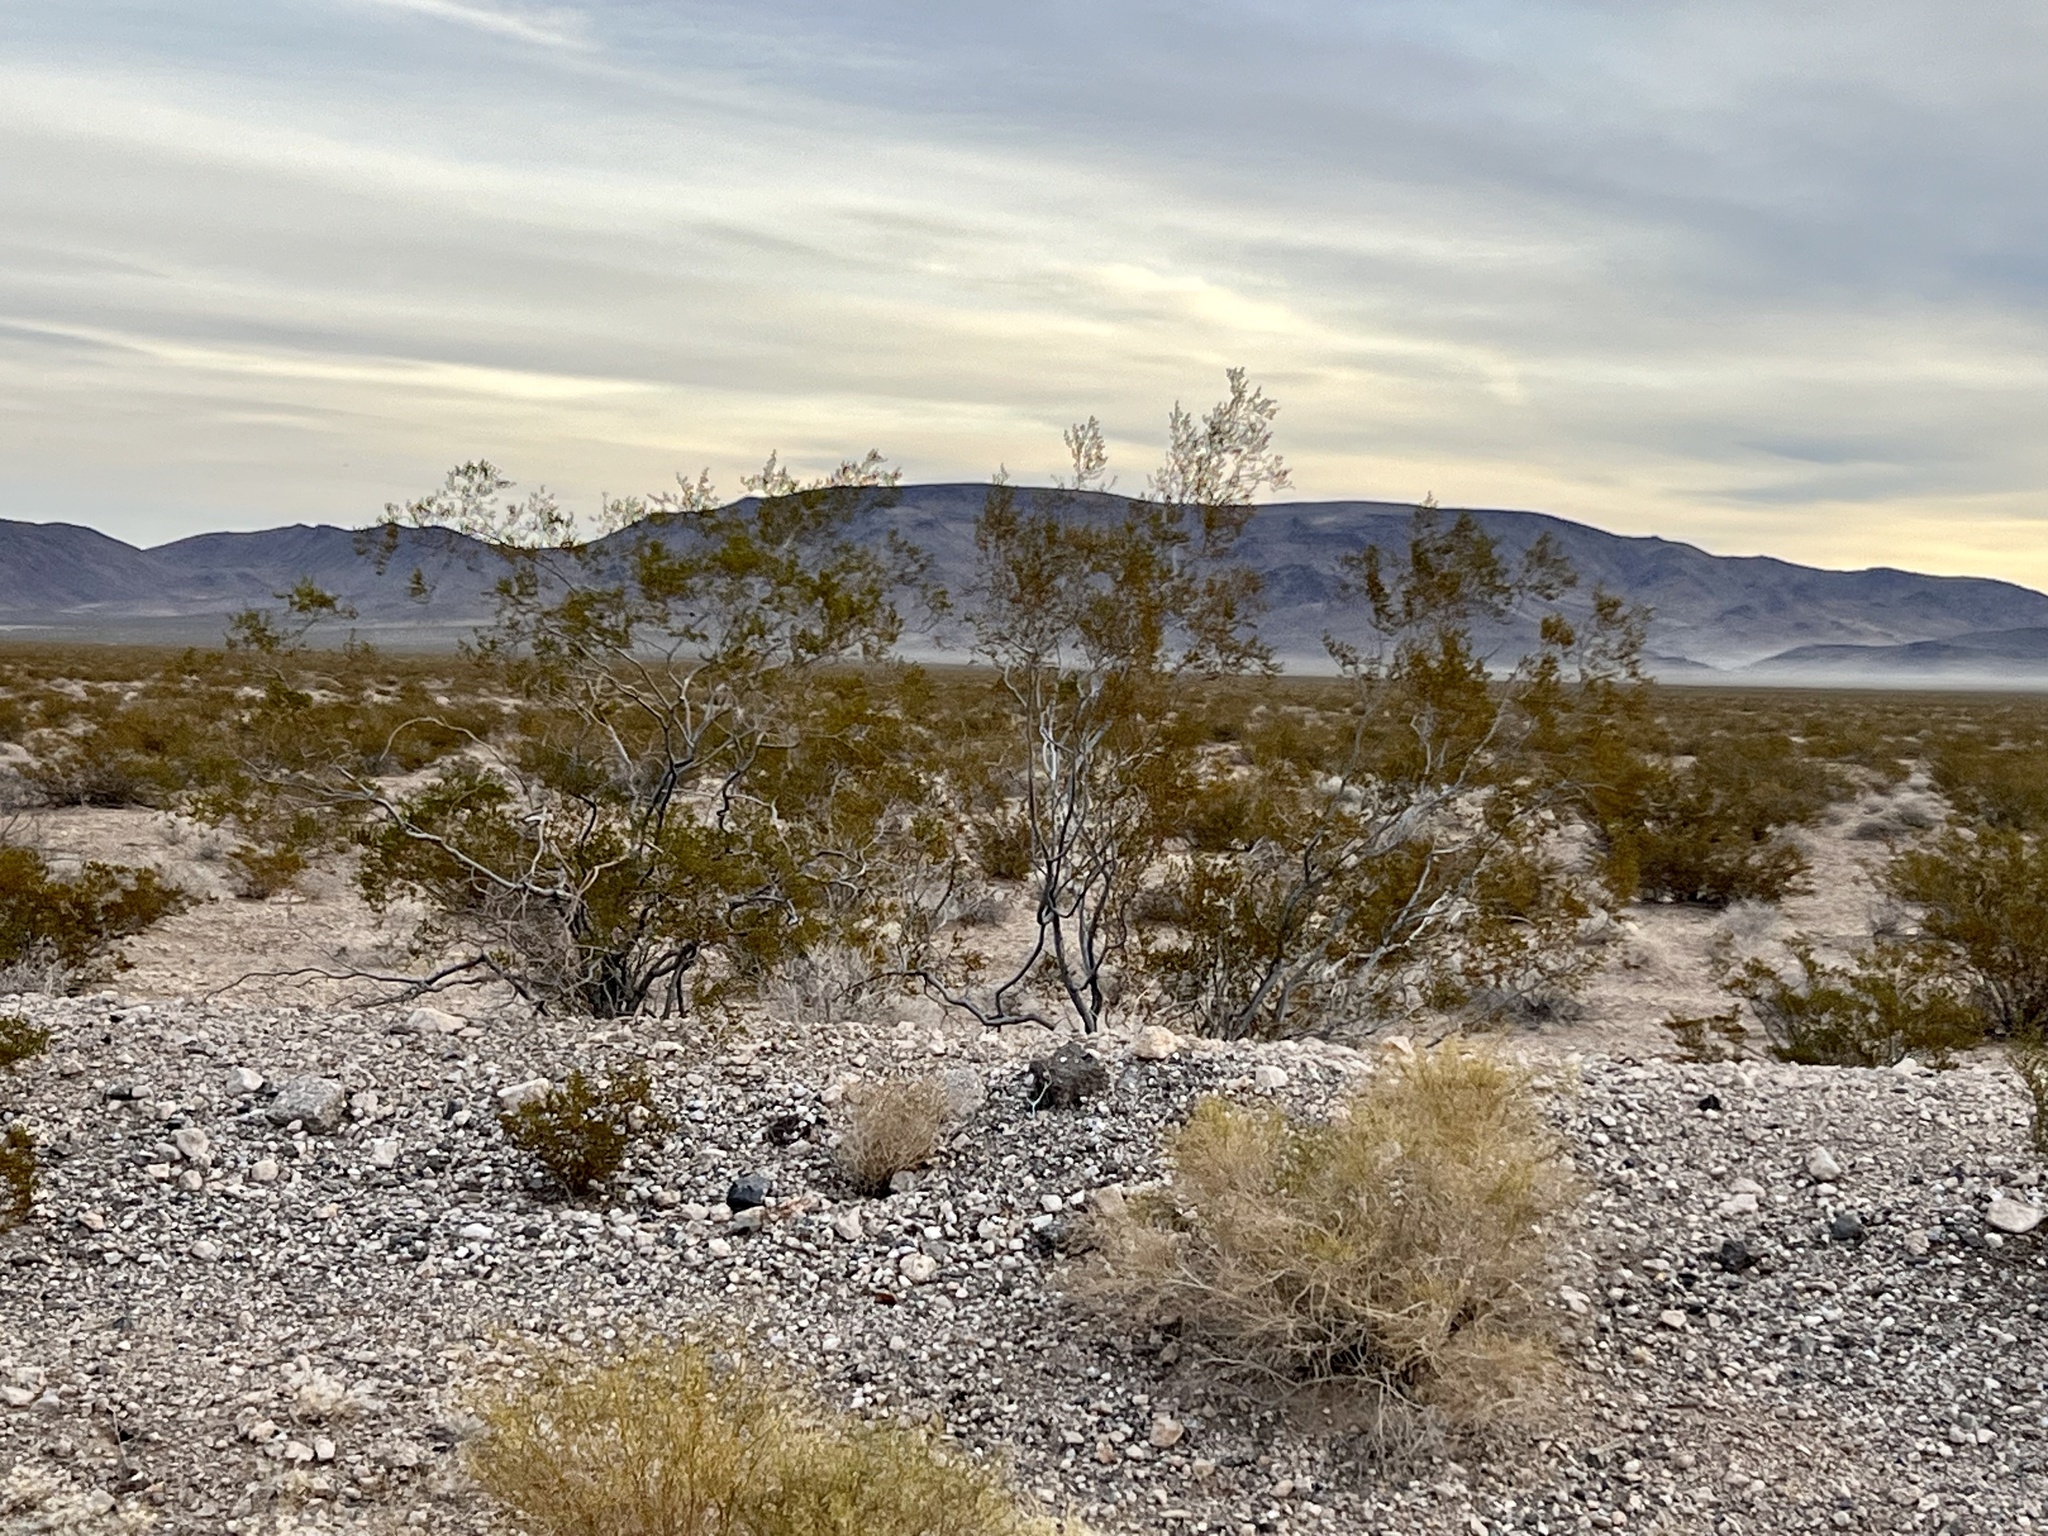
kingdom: Plantae
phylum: Tracheophyta
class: Magnoliopsida
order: Zygophyllales
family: Zygophyllaceae
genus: Larrea
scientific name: Larrea tridentata
